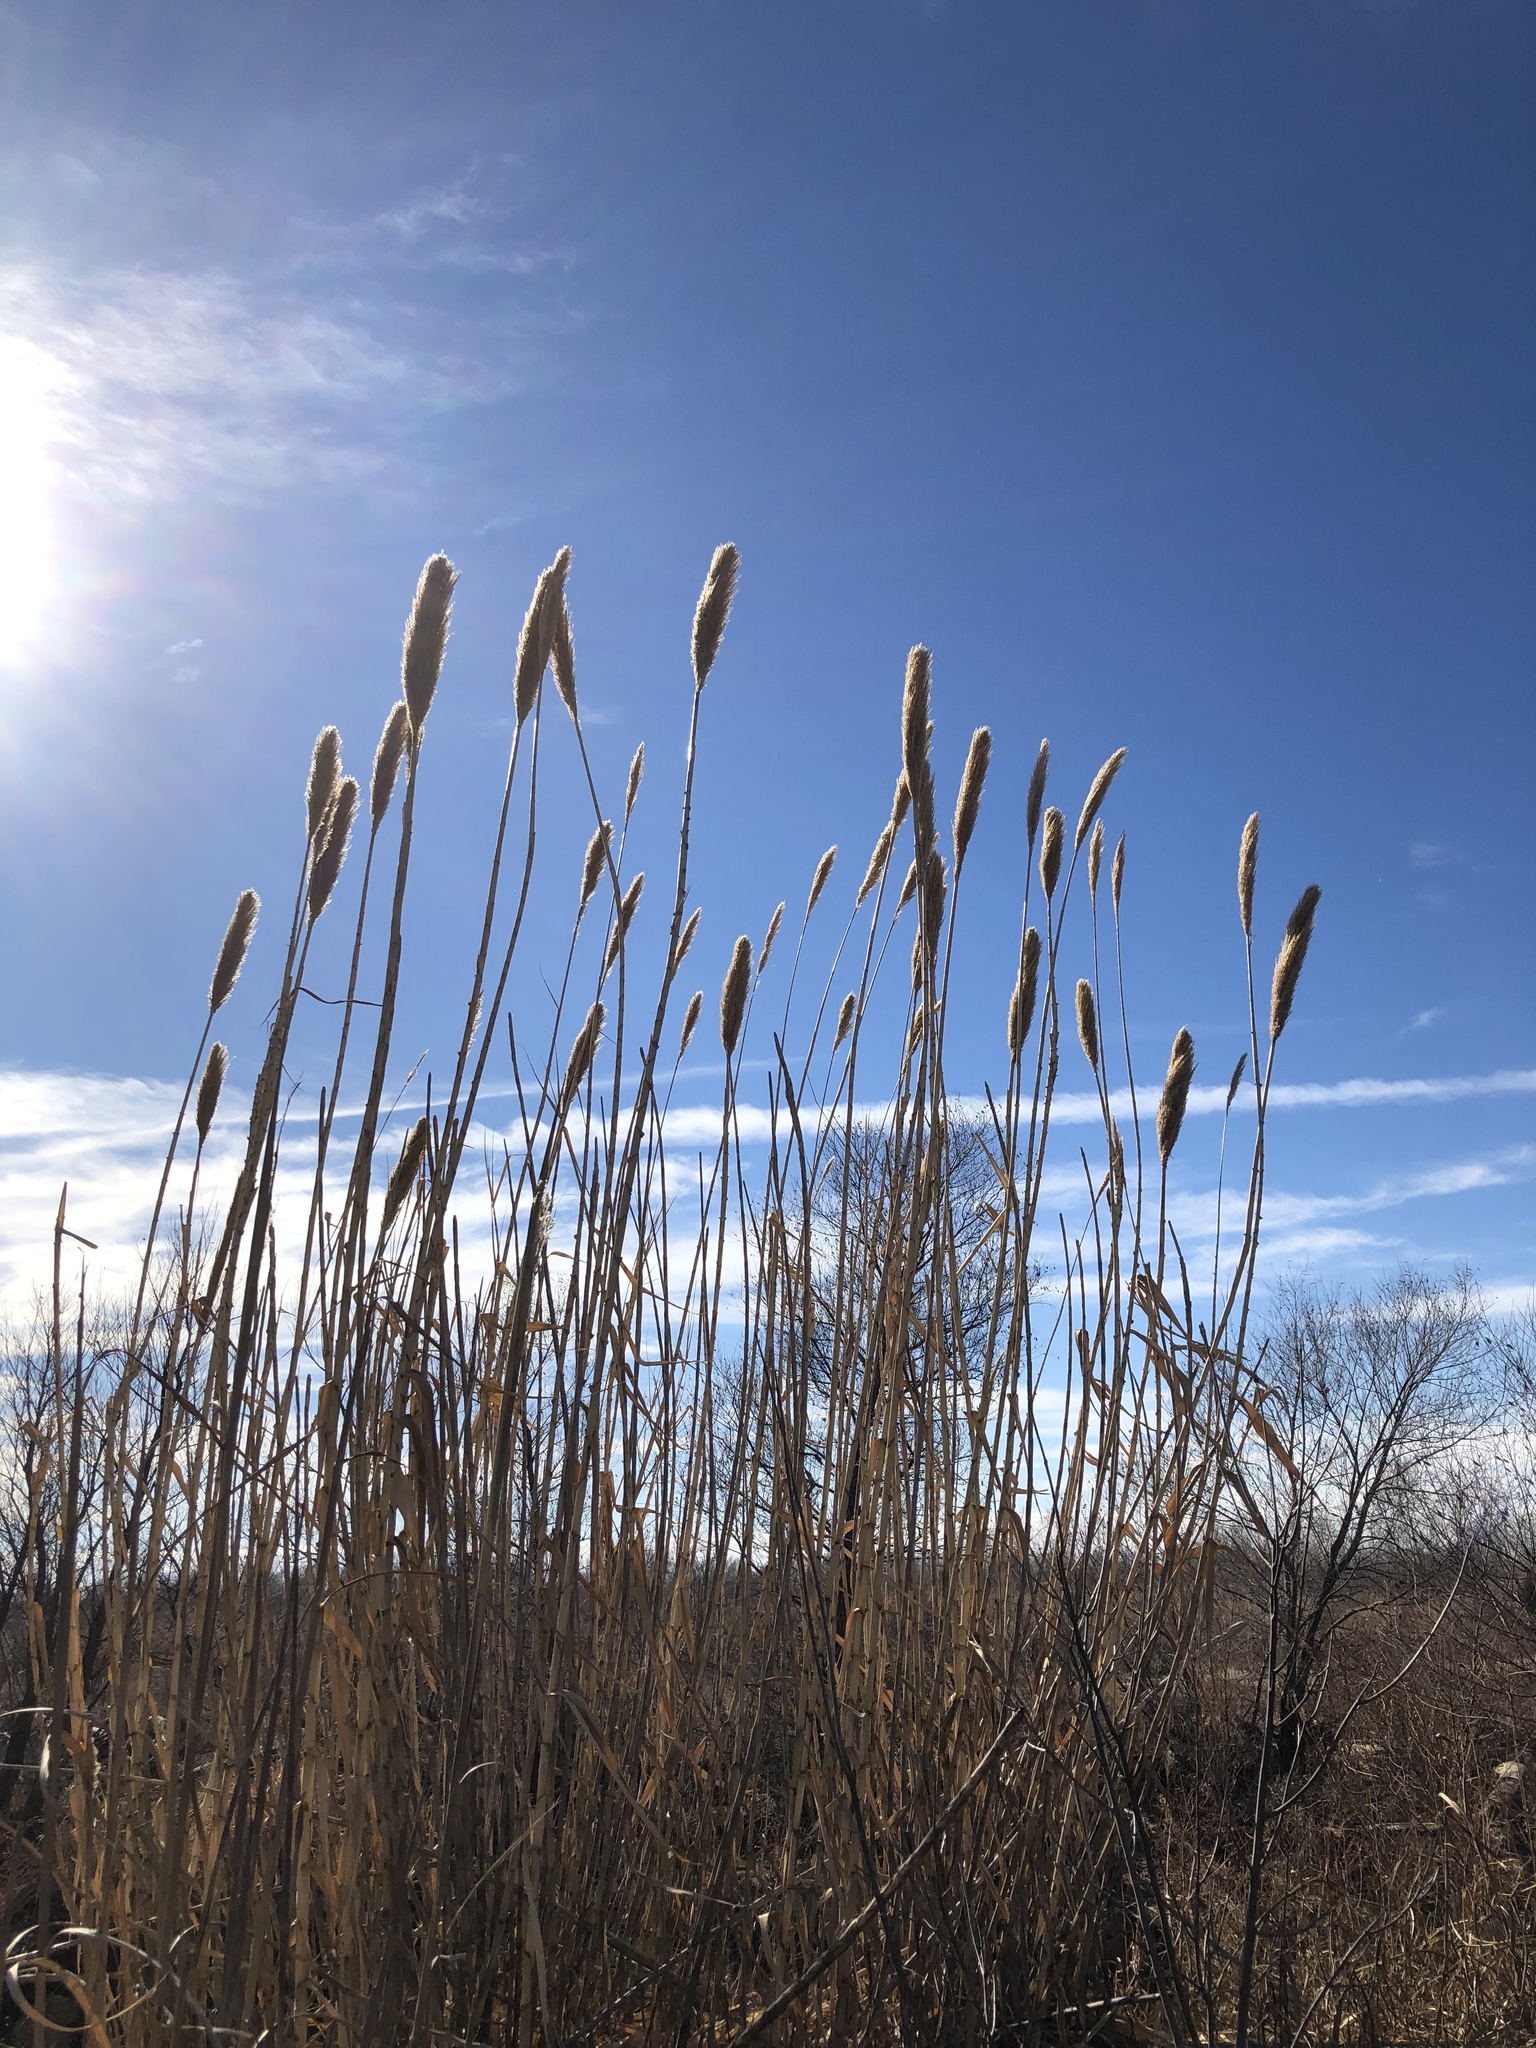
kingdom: Plantae
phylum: Tracheophyta
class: Liliopsida
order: Poales
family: Poaceae
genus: Arundo
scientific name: Arundo donax
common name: Giant reed
